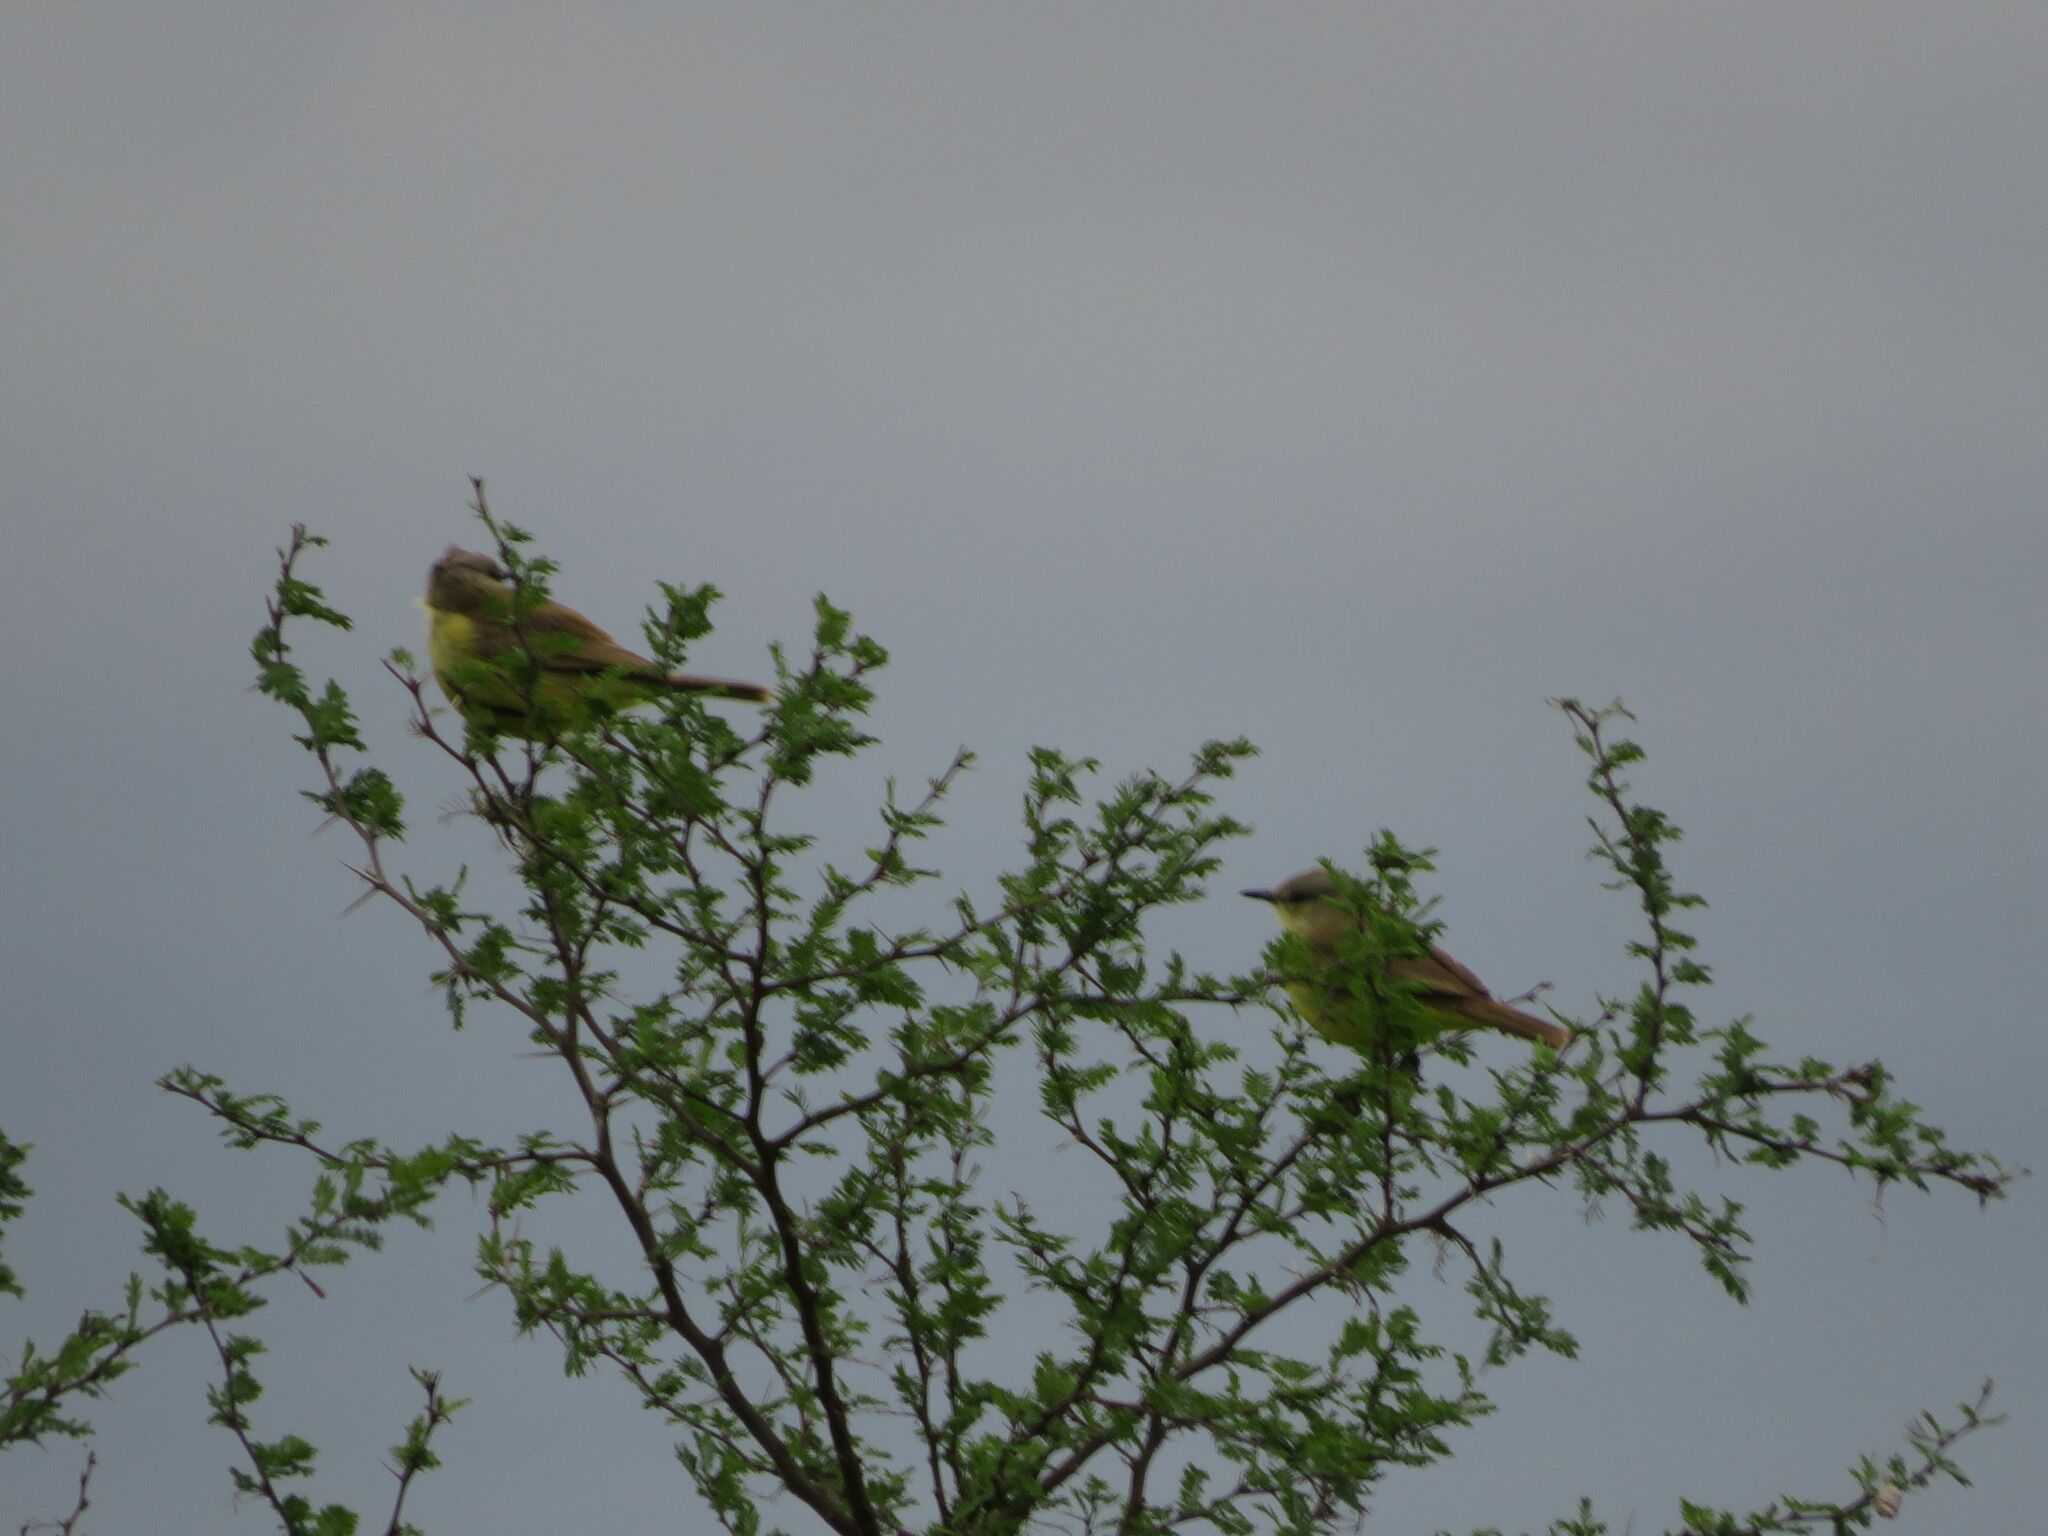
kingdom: Animalia
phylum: Chordata
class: Aves
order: Passeriformes
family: Tyrannidae
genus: Machetornis
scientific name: Machetornis rixosa
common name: Cattle tyrant
